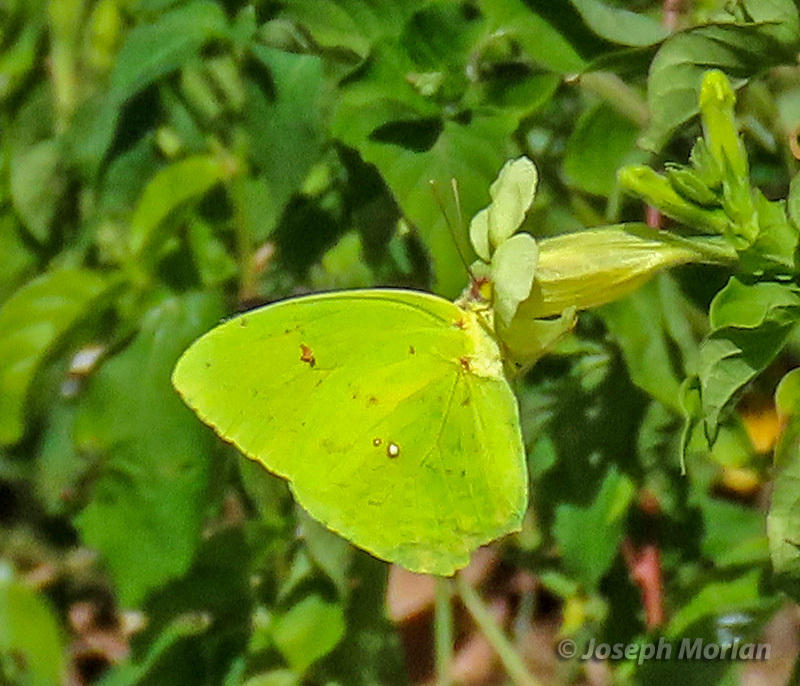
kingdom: Animalia
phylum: Arthropoda
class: Insecta
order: Lepidoptera
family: Pieridae
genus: Phoebis
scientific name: Phoebis sennae
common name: Cloudless sulphur
